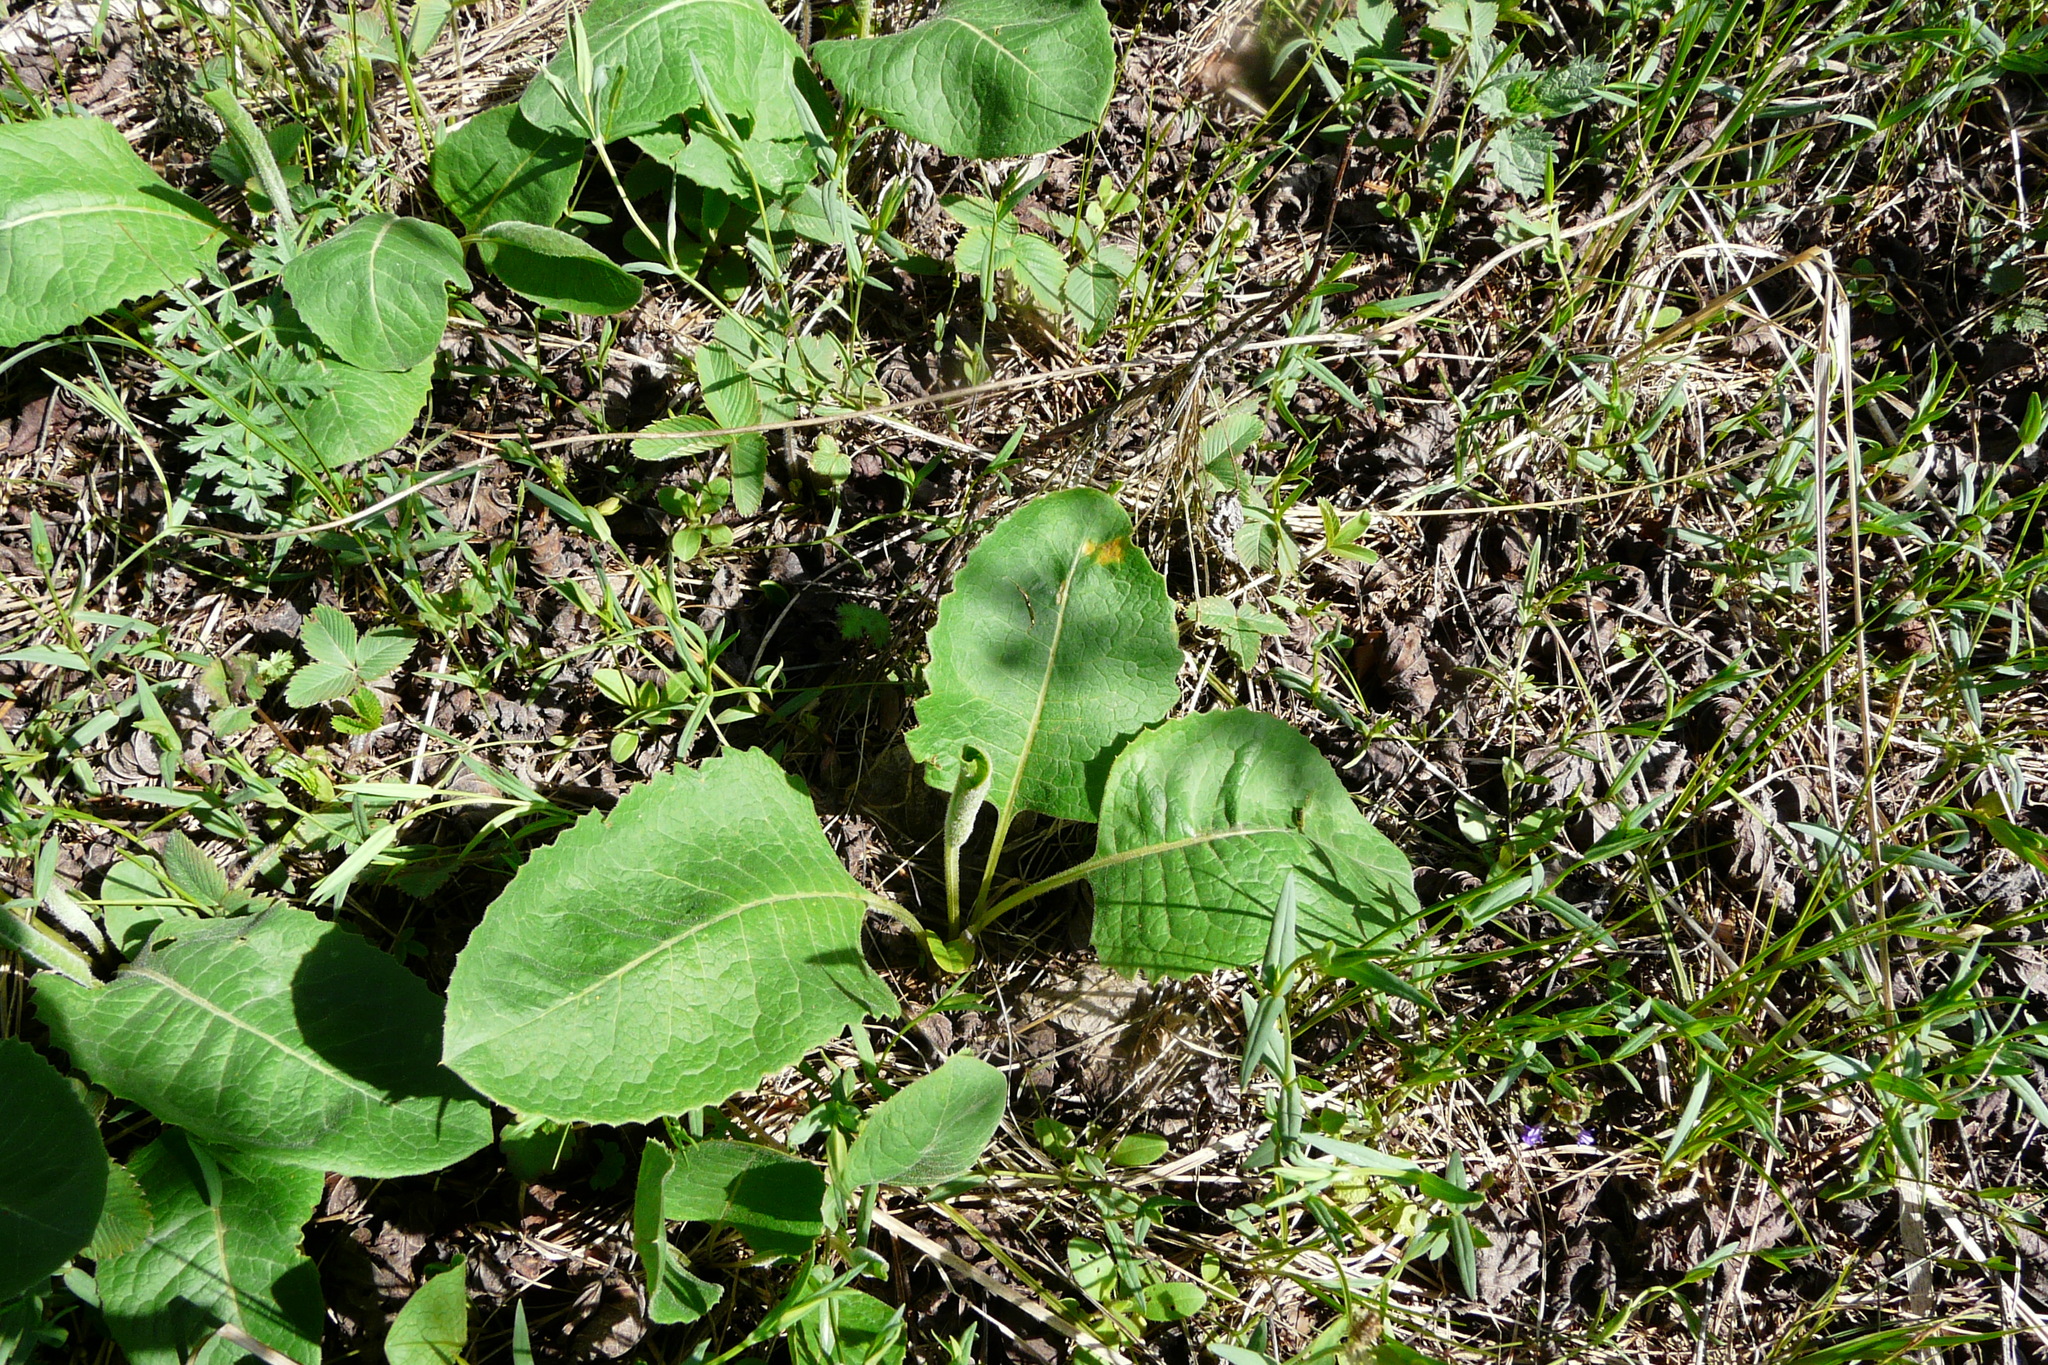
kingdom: Plantae
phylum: Tracheophyta
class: Magnoliopsida
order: Asterales
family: Asteraceae
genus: Klasea
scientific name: Klasea lycopifolia
